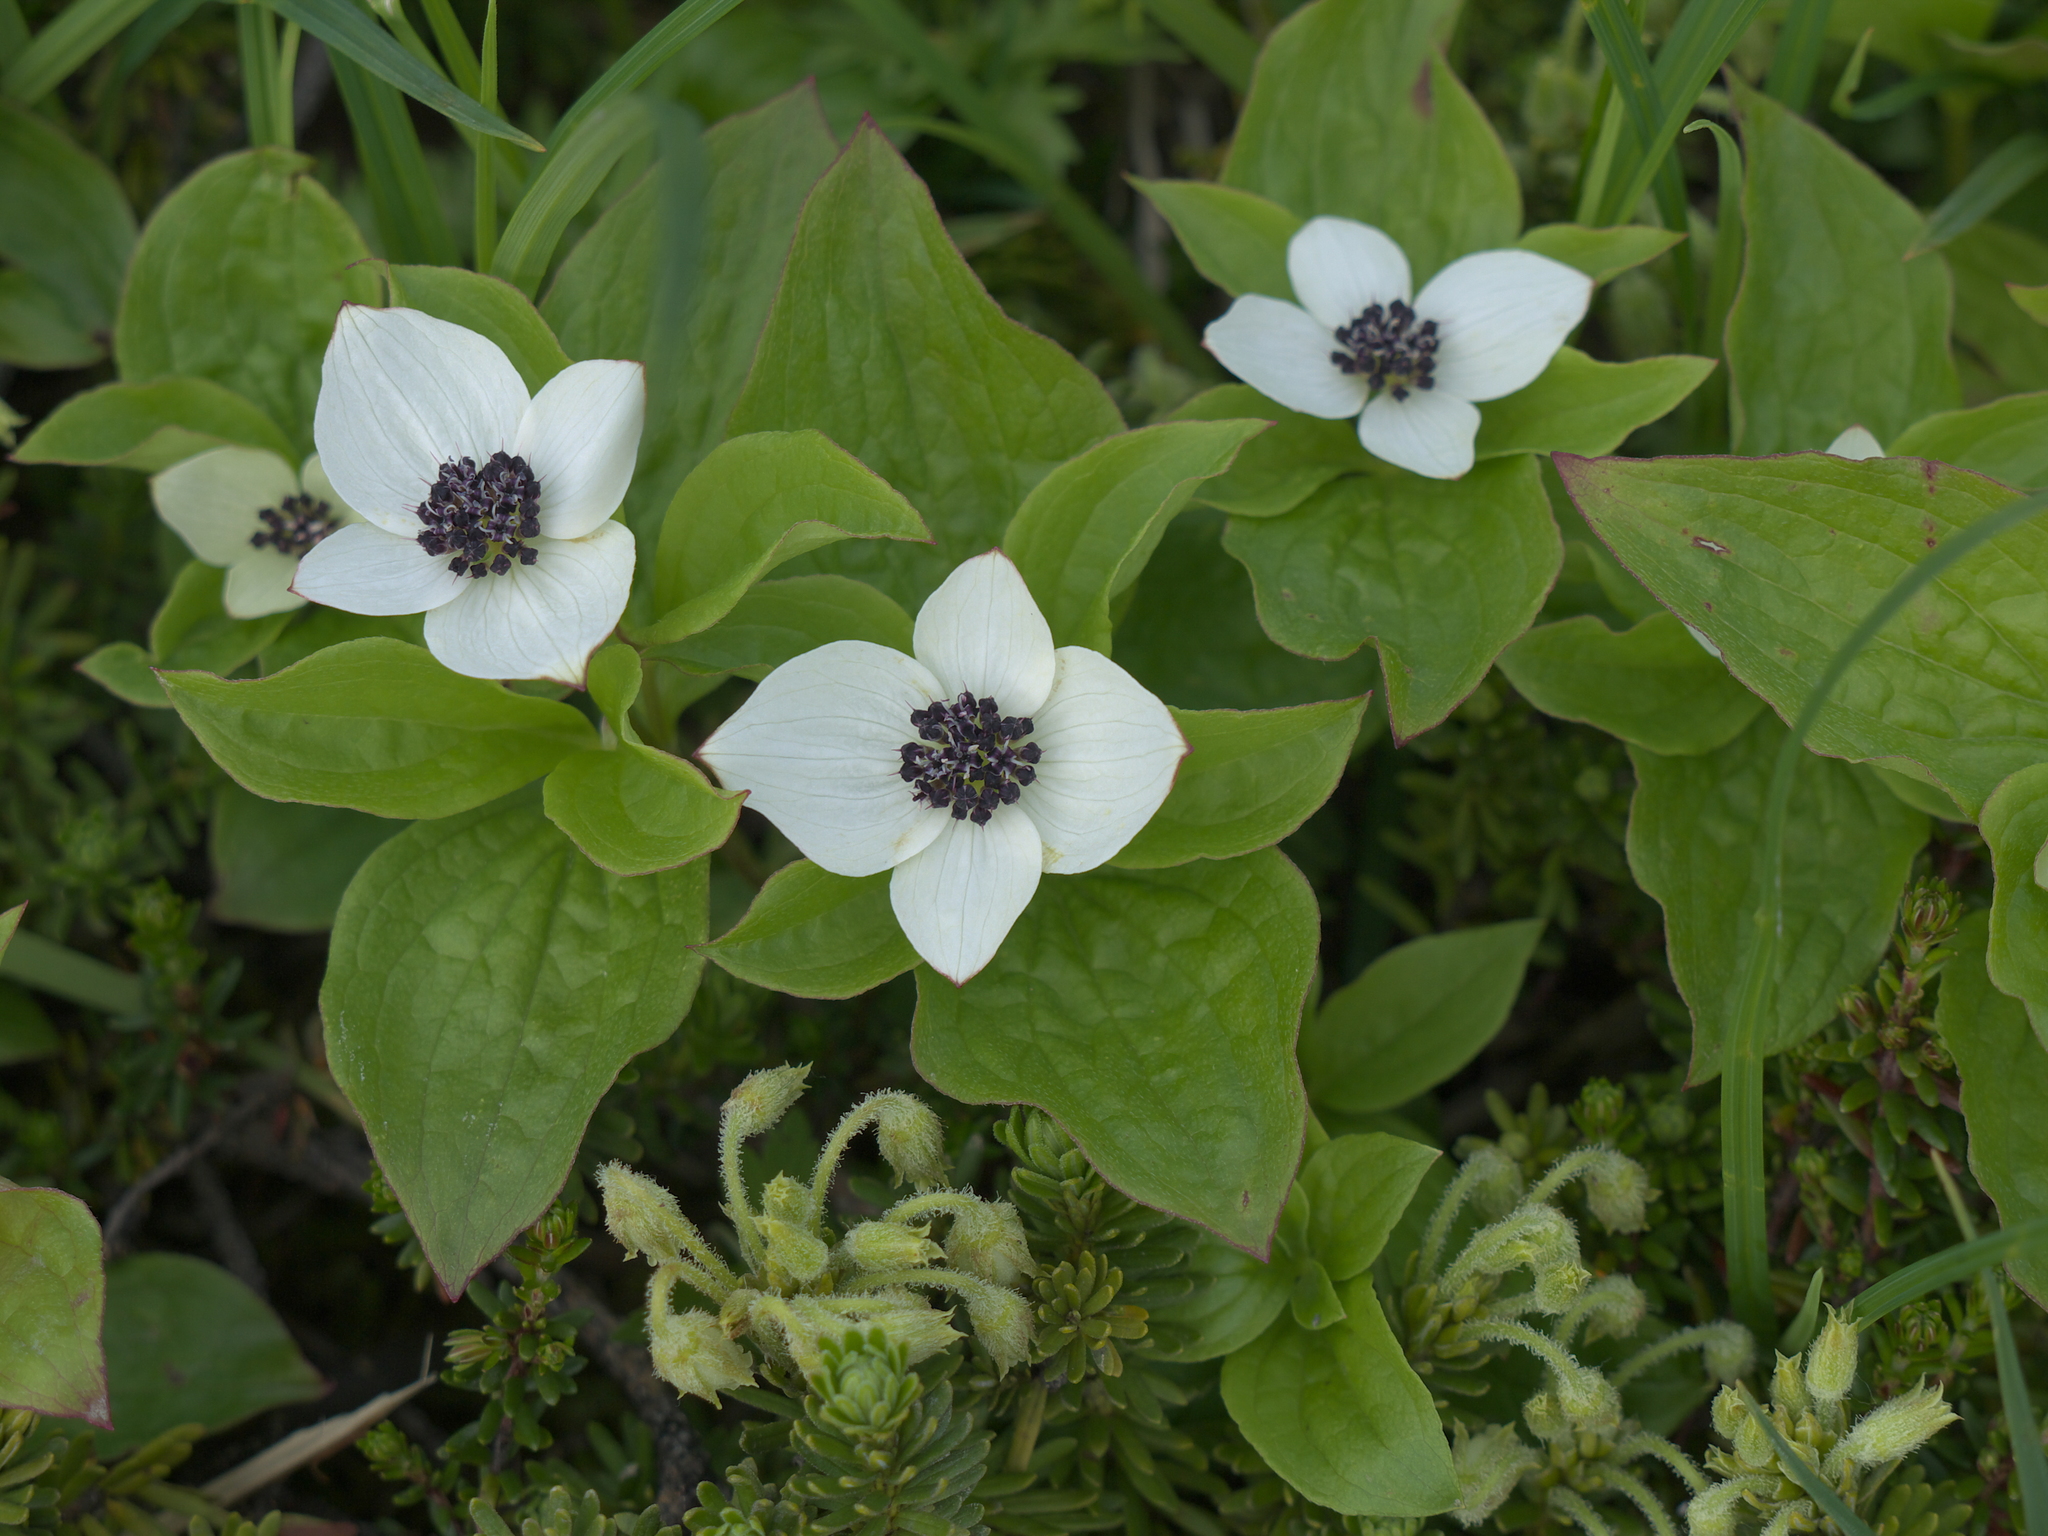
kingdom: Plantae
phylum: Tracheophyta
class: Magnoliopsida
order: Cornales
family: Cornaceae
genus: Cornus
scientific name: Cornus suecica
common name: Dwarf cornel
